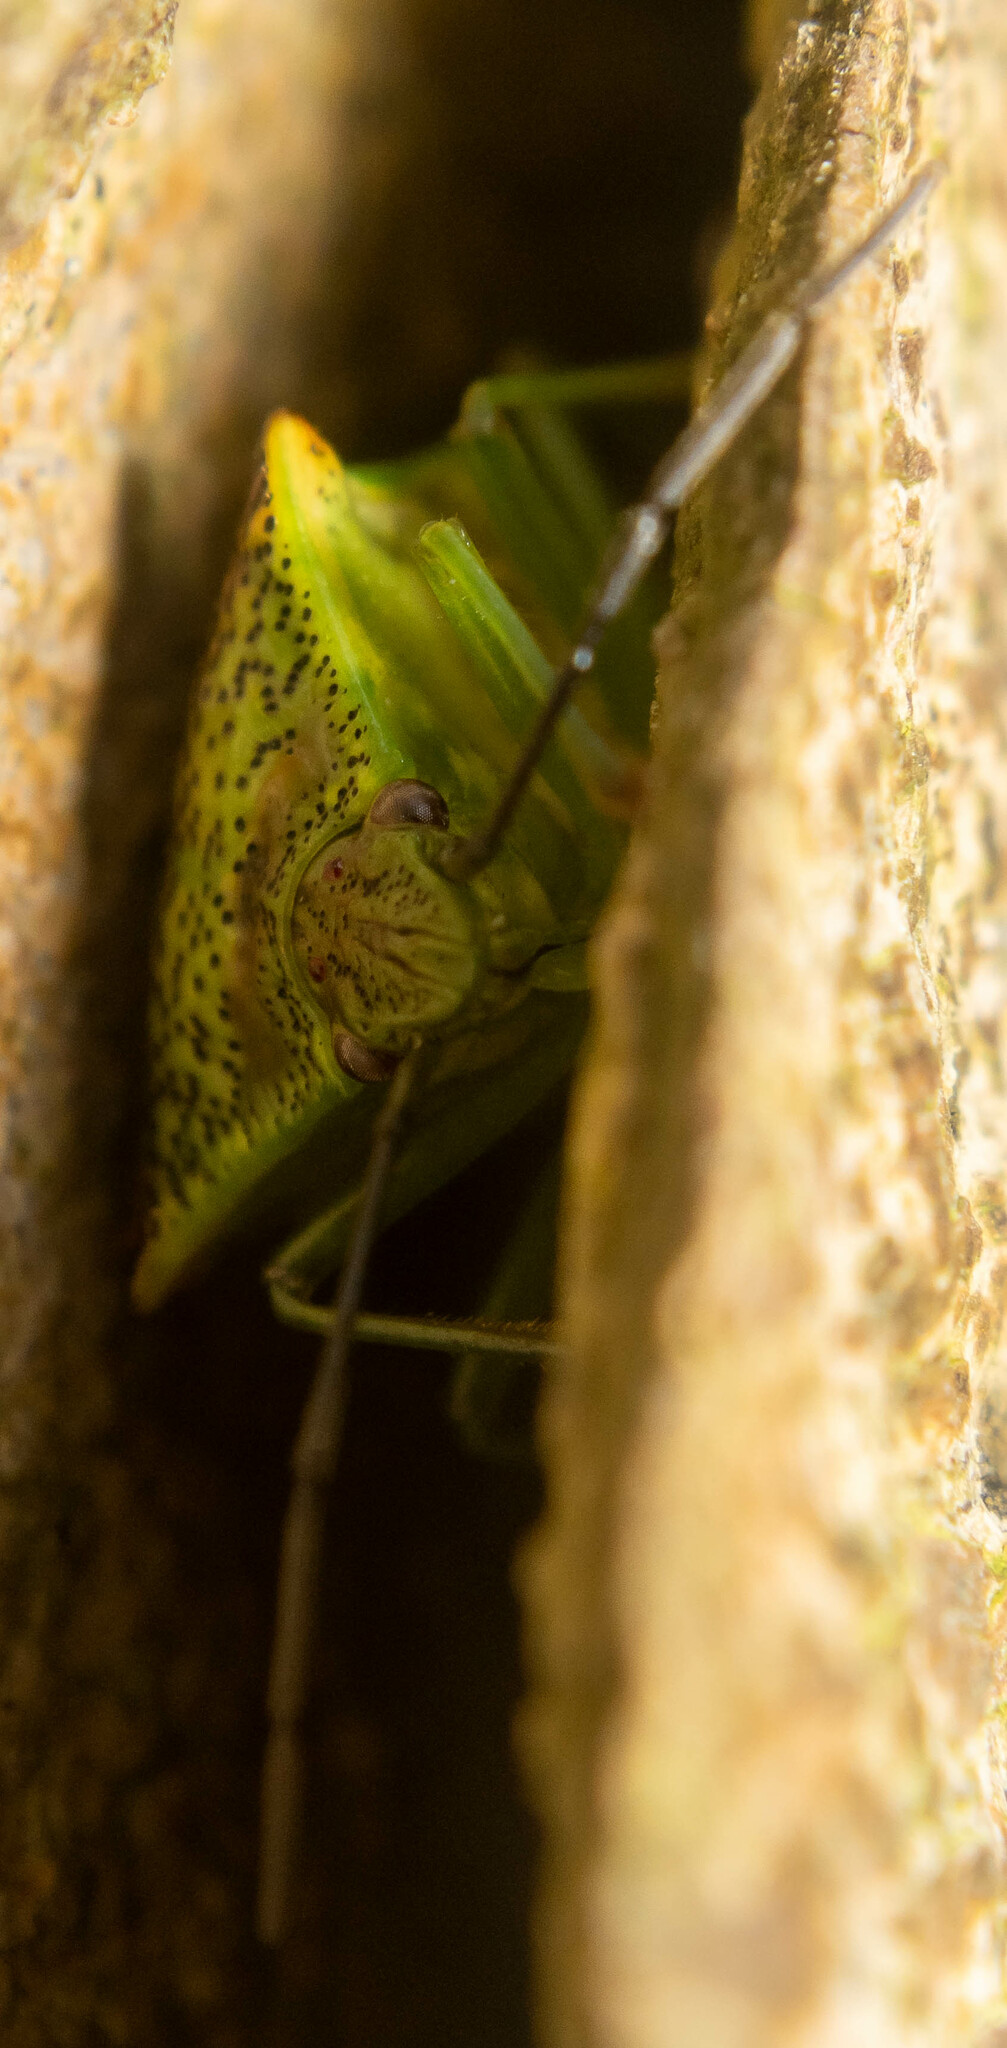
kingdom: Animalia
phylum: Arthropoda
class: Insecta
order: Hemiptera
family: Acanthosomatidae
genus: Acanthosoma
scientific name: Acanthosoma haemorrhoidale
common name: Hawthorn shieldbug
